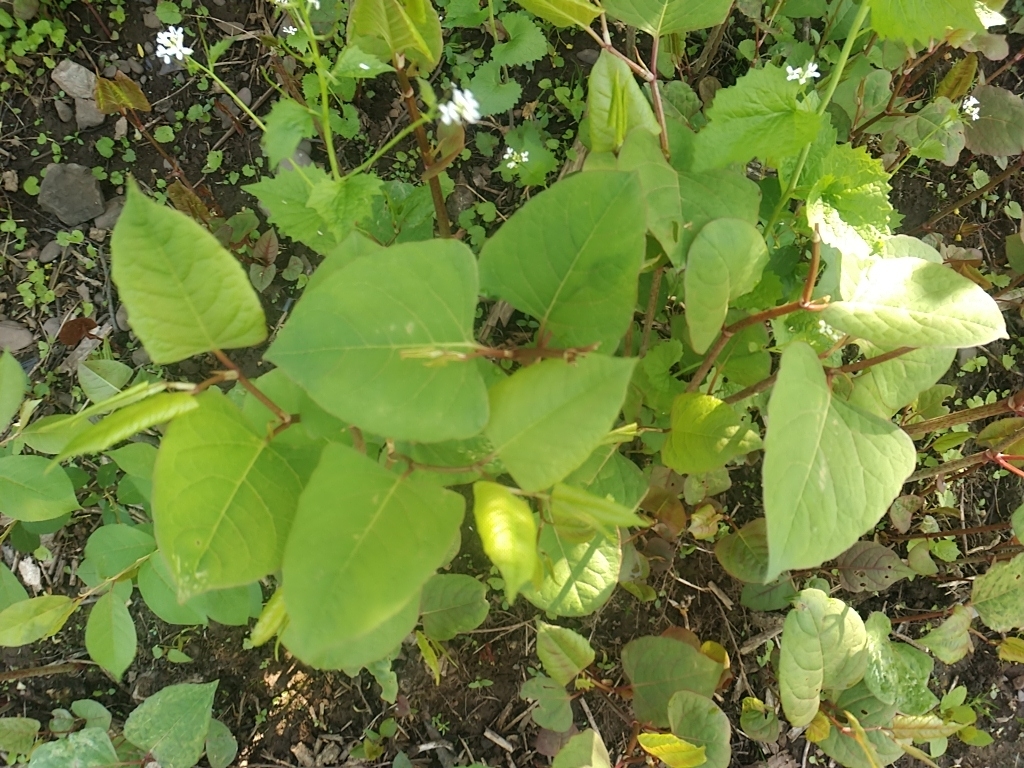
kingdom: Plantae
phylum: Tracheophyta
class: Magnoliopsida
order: Caryophyllales
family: Polygonaceae
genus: Reynoutria
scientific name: Reynoutria japonica
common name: Japanese knotweed
